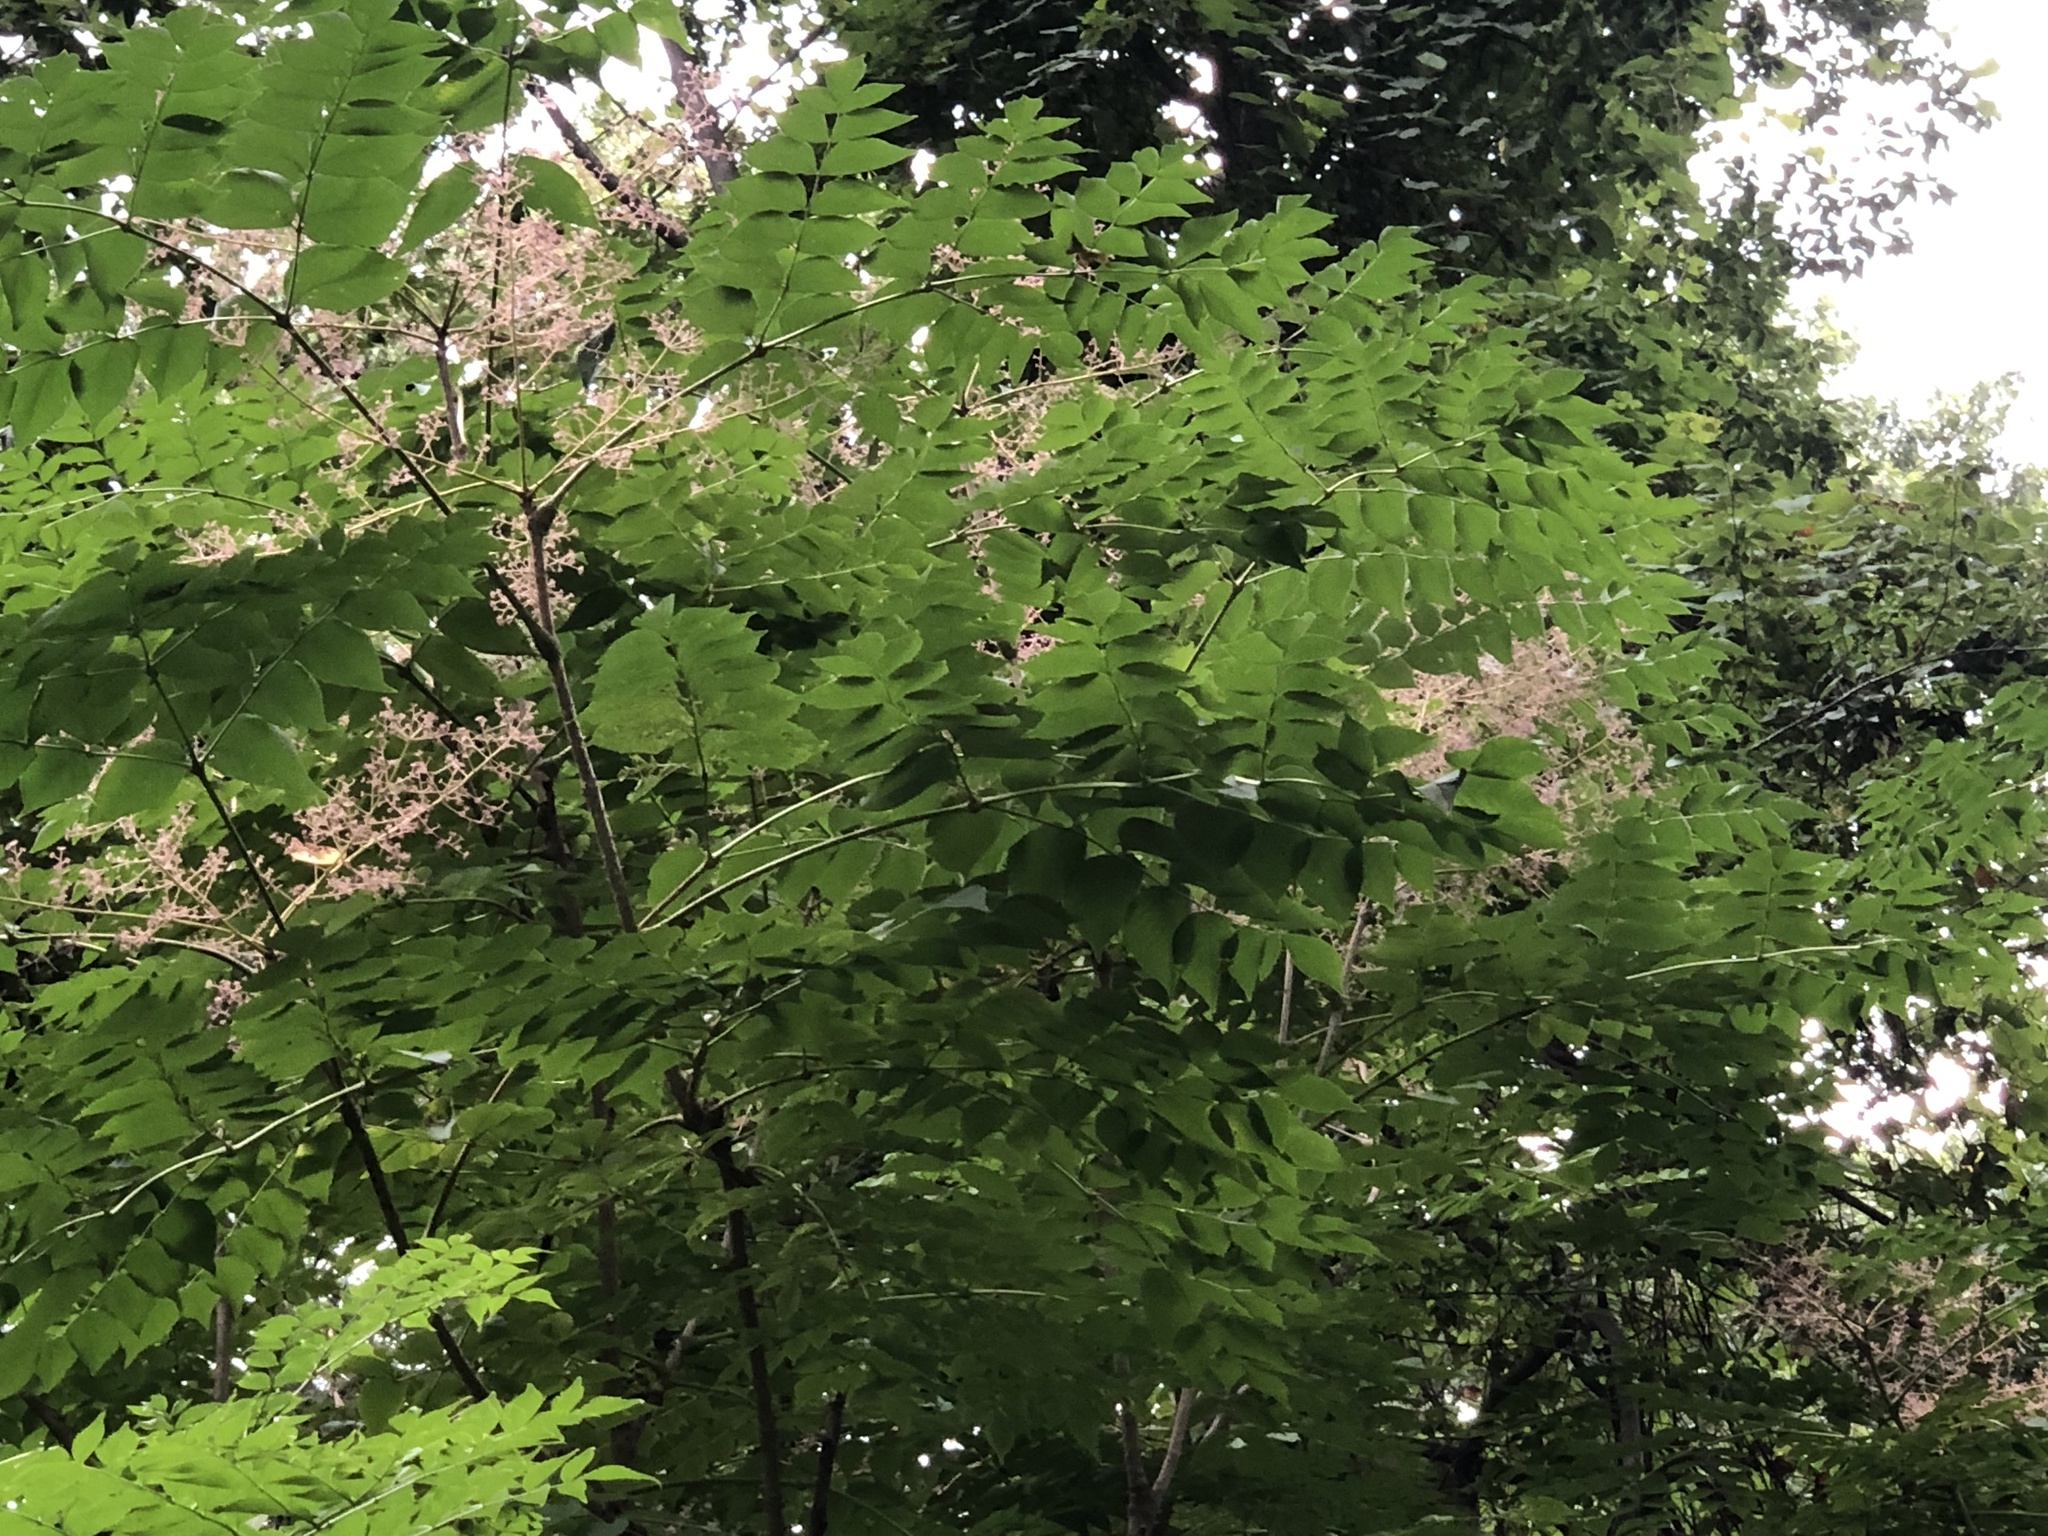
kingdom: Plantae
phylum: Tracheophyta
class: Magnoliopsida
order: Apiales
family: Araliaceae
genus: Aralia
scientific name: Aralia elata
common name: Japanese angelica-tree
